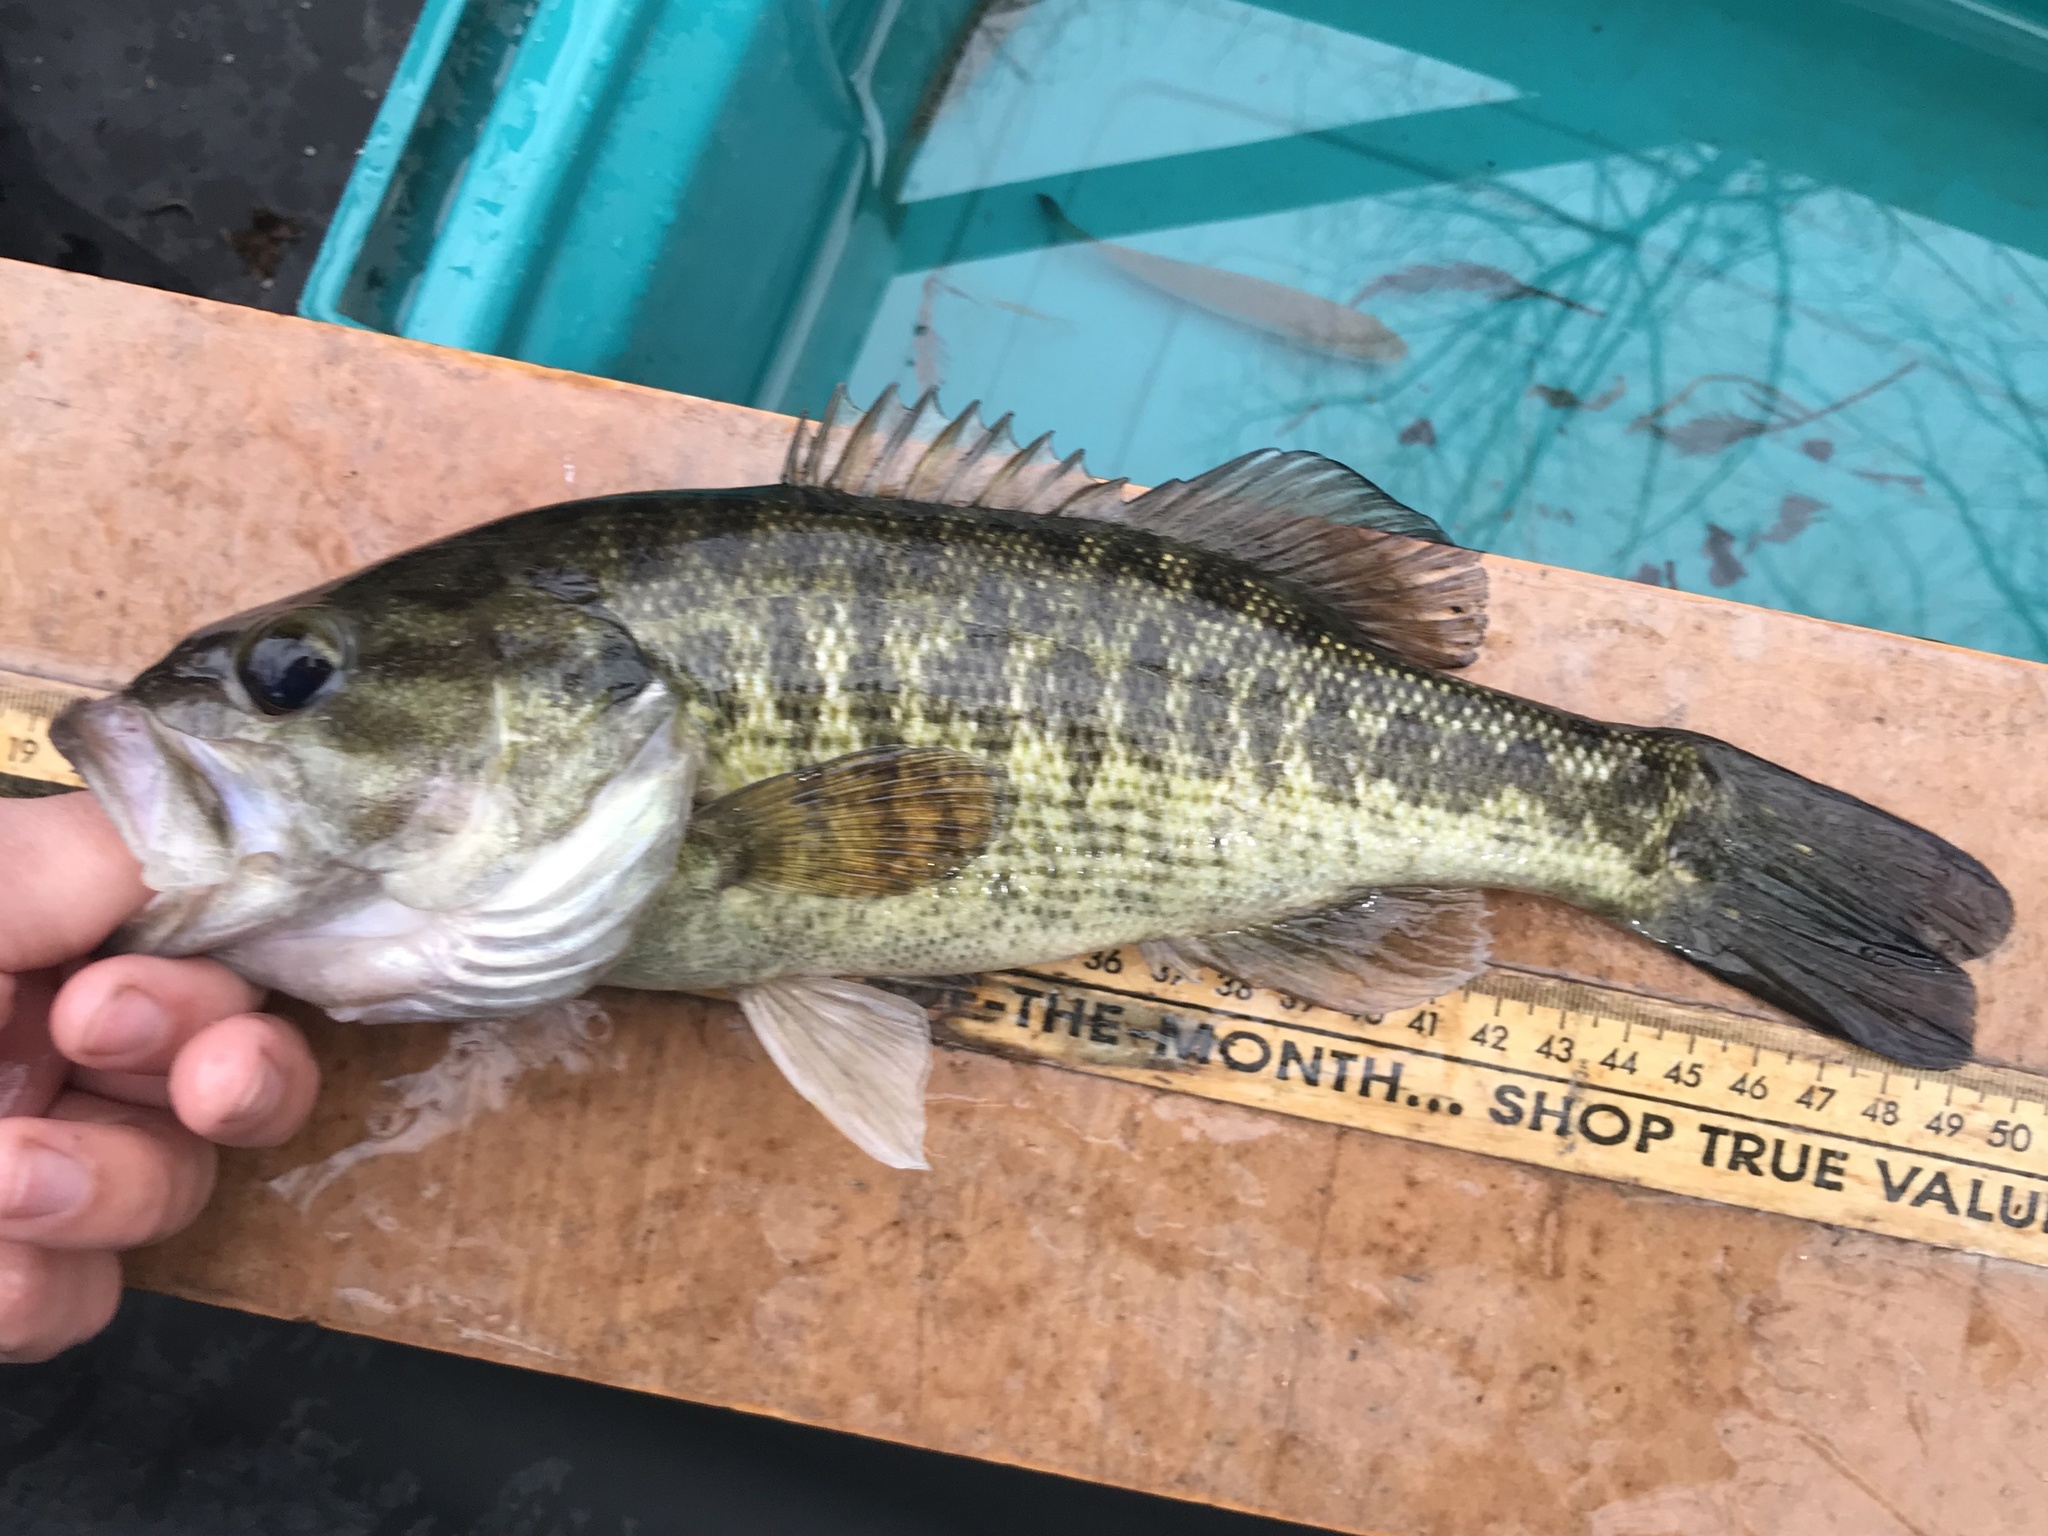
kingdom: Animalia
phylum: Chordata
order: Perciformes
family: Centrarchidae
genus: Micropterus
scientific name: Micropterus treculii
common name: Guadalupe bass
